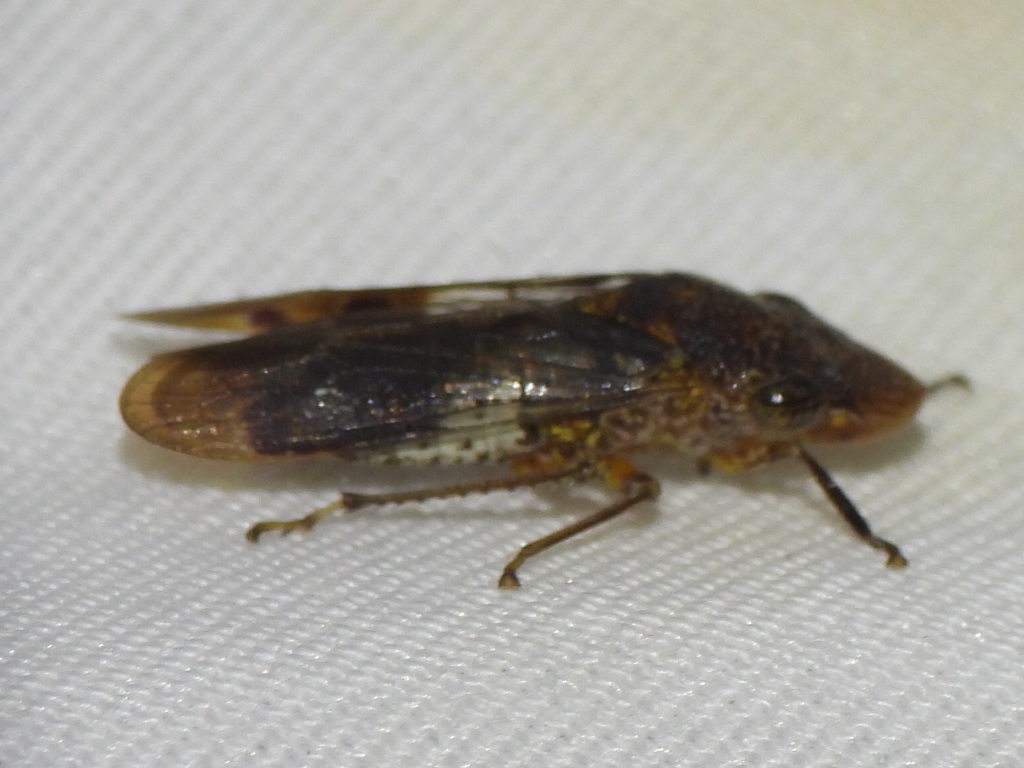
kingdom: Animalia
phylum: Arthropoda
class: Insecta
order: Hemiptera
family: Cicadellidae
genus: Homalodisca
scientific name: Homalodisca vitripennis
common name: Glassy-winged sharpshooter
